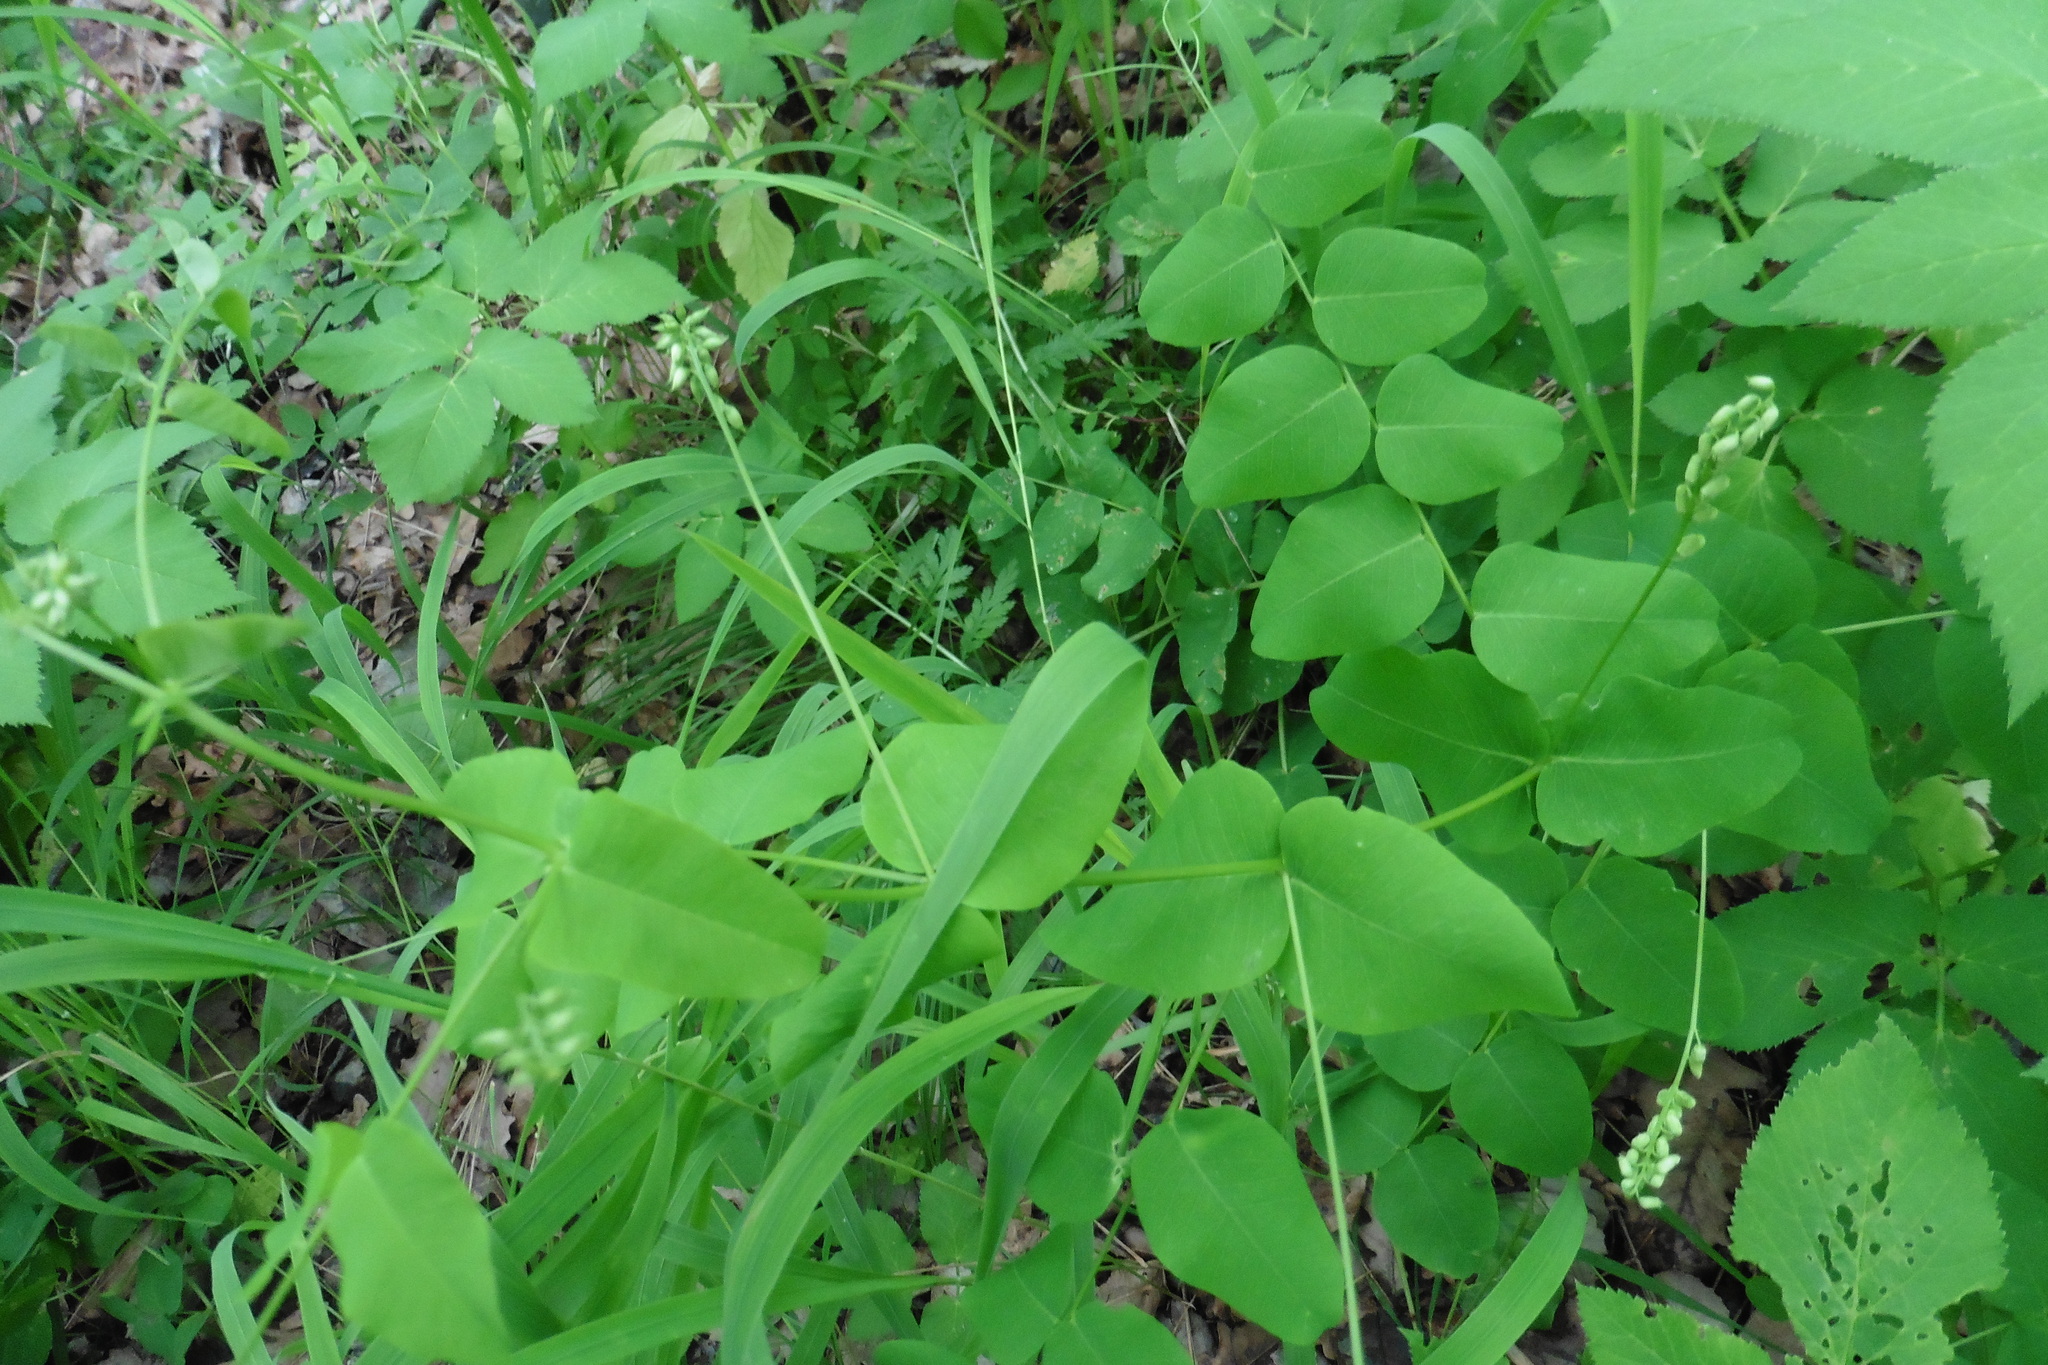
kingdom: Plantae
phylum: Tracheophyta
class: Magnoliopsida
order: Fabales
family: Fabaceae
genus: Vicia
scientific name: Vicia pisiformis
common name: Pale-flower vetch
